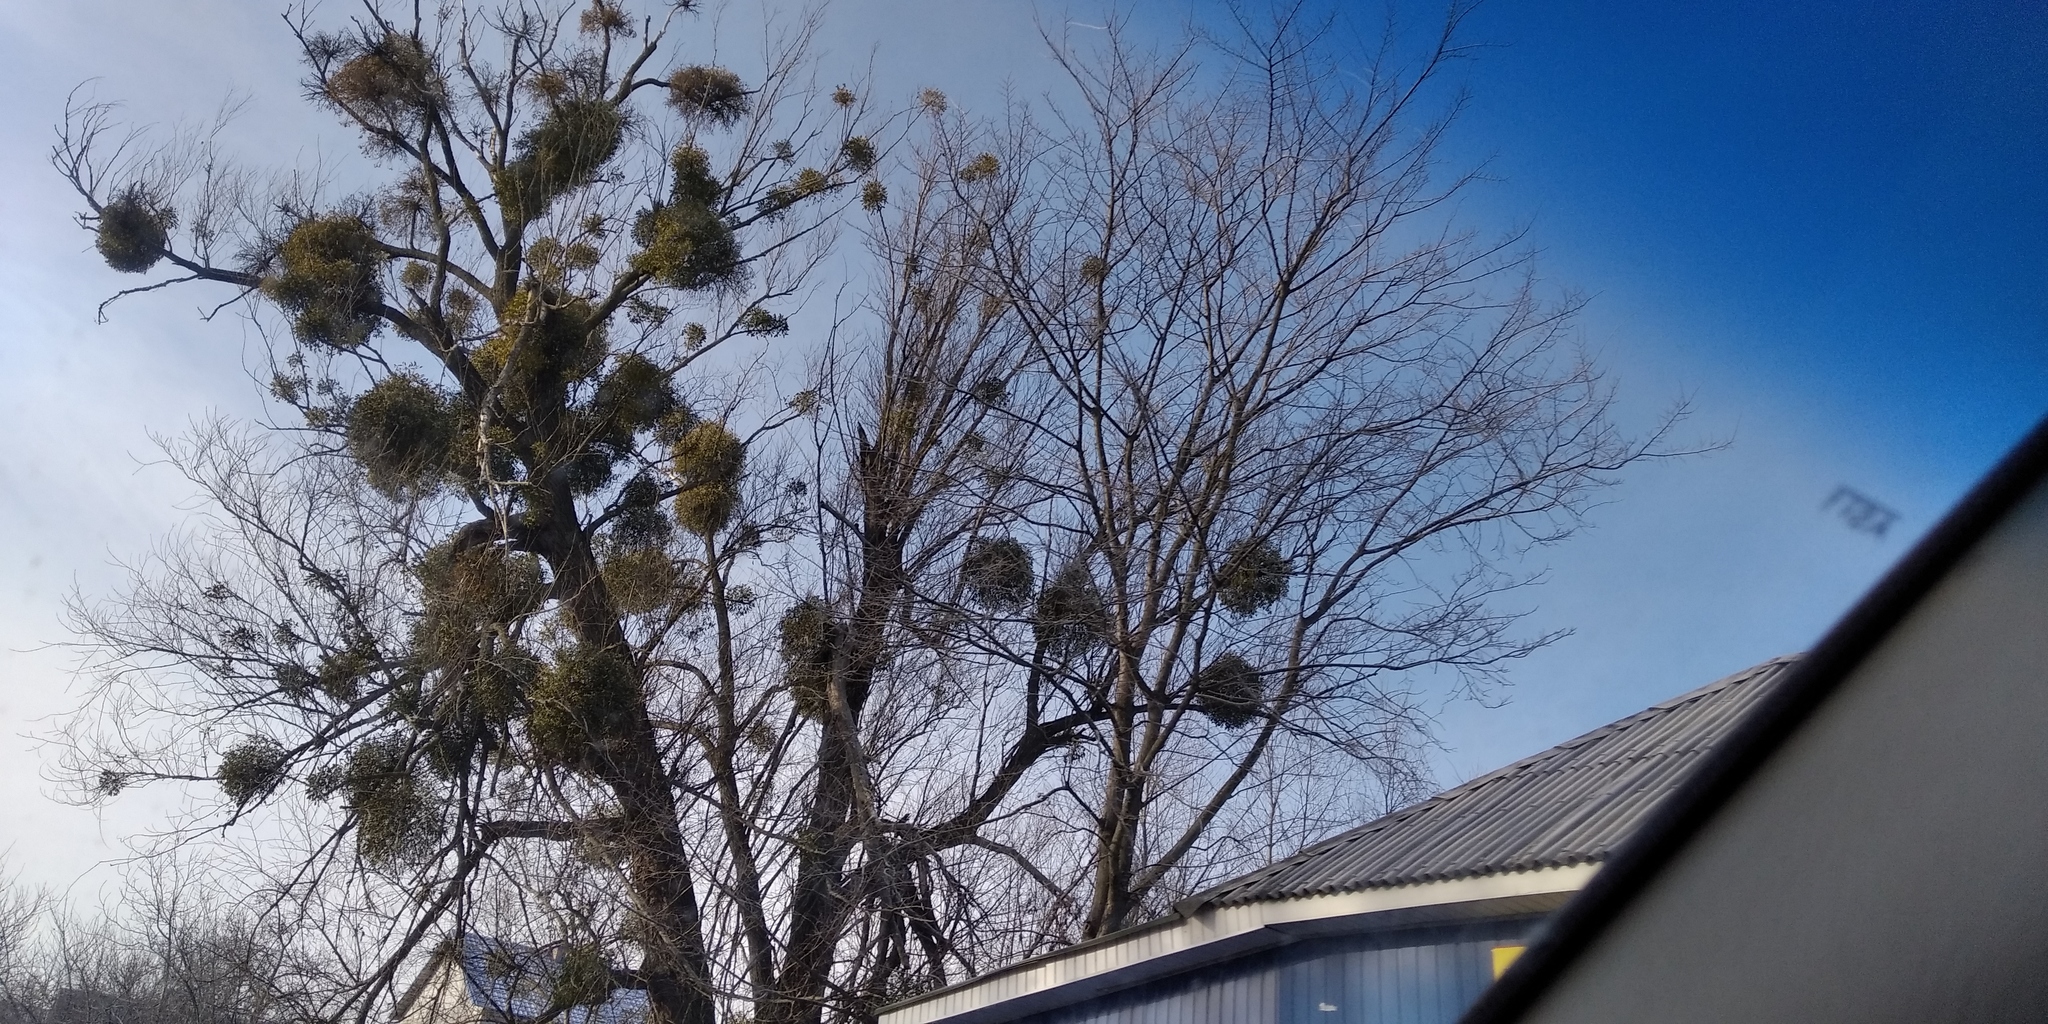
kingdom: Plantae
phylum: Tracheophyta
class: Magnoliopsida
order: Santalales
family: Viscaceae
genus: Viscum
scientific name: Viscum album
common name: Mistletoe
